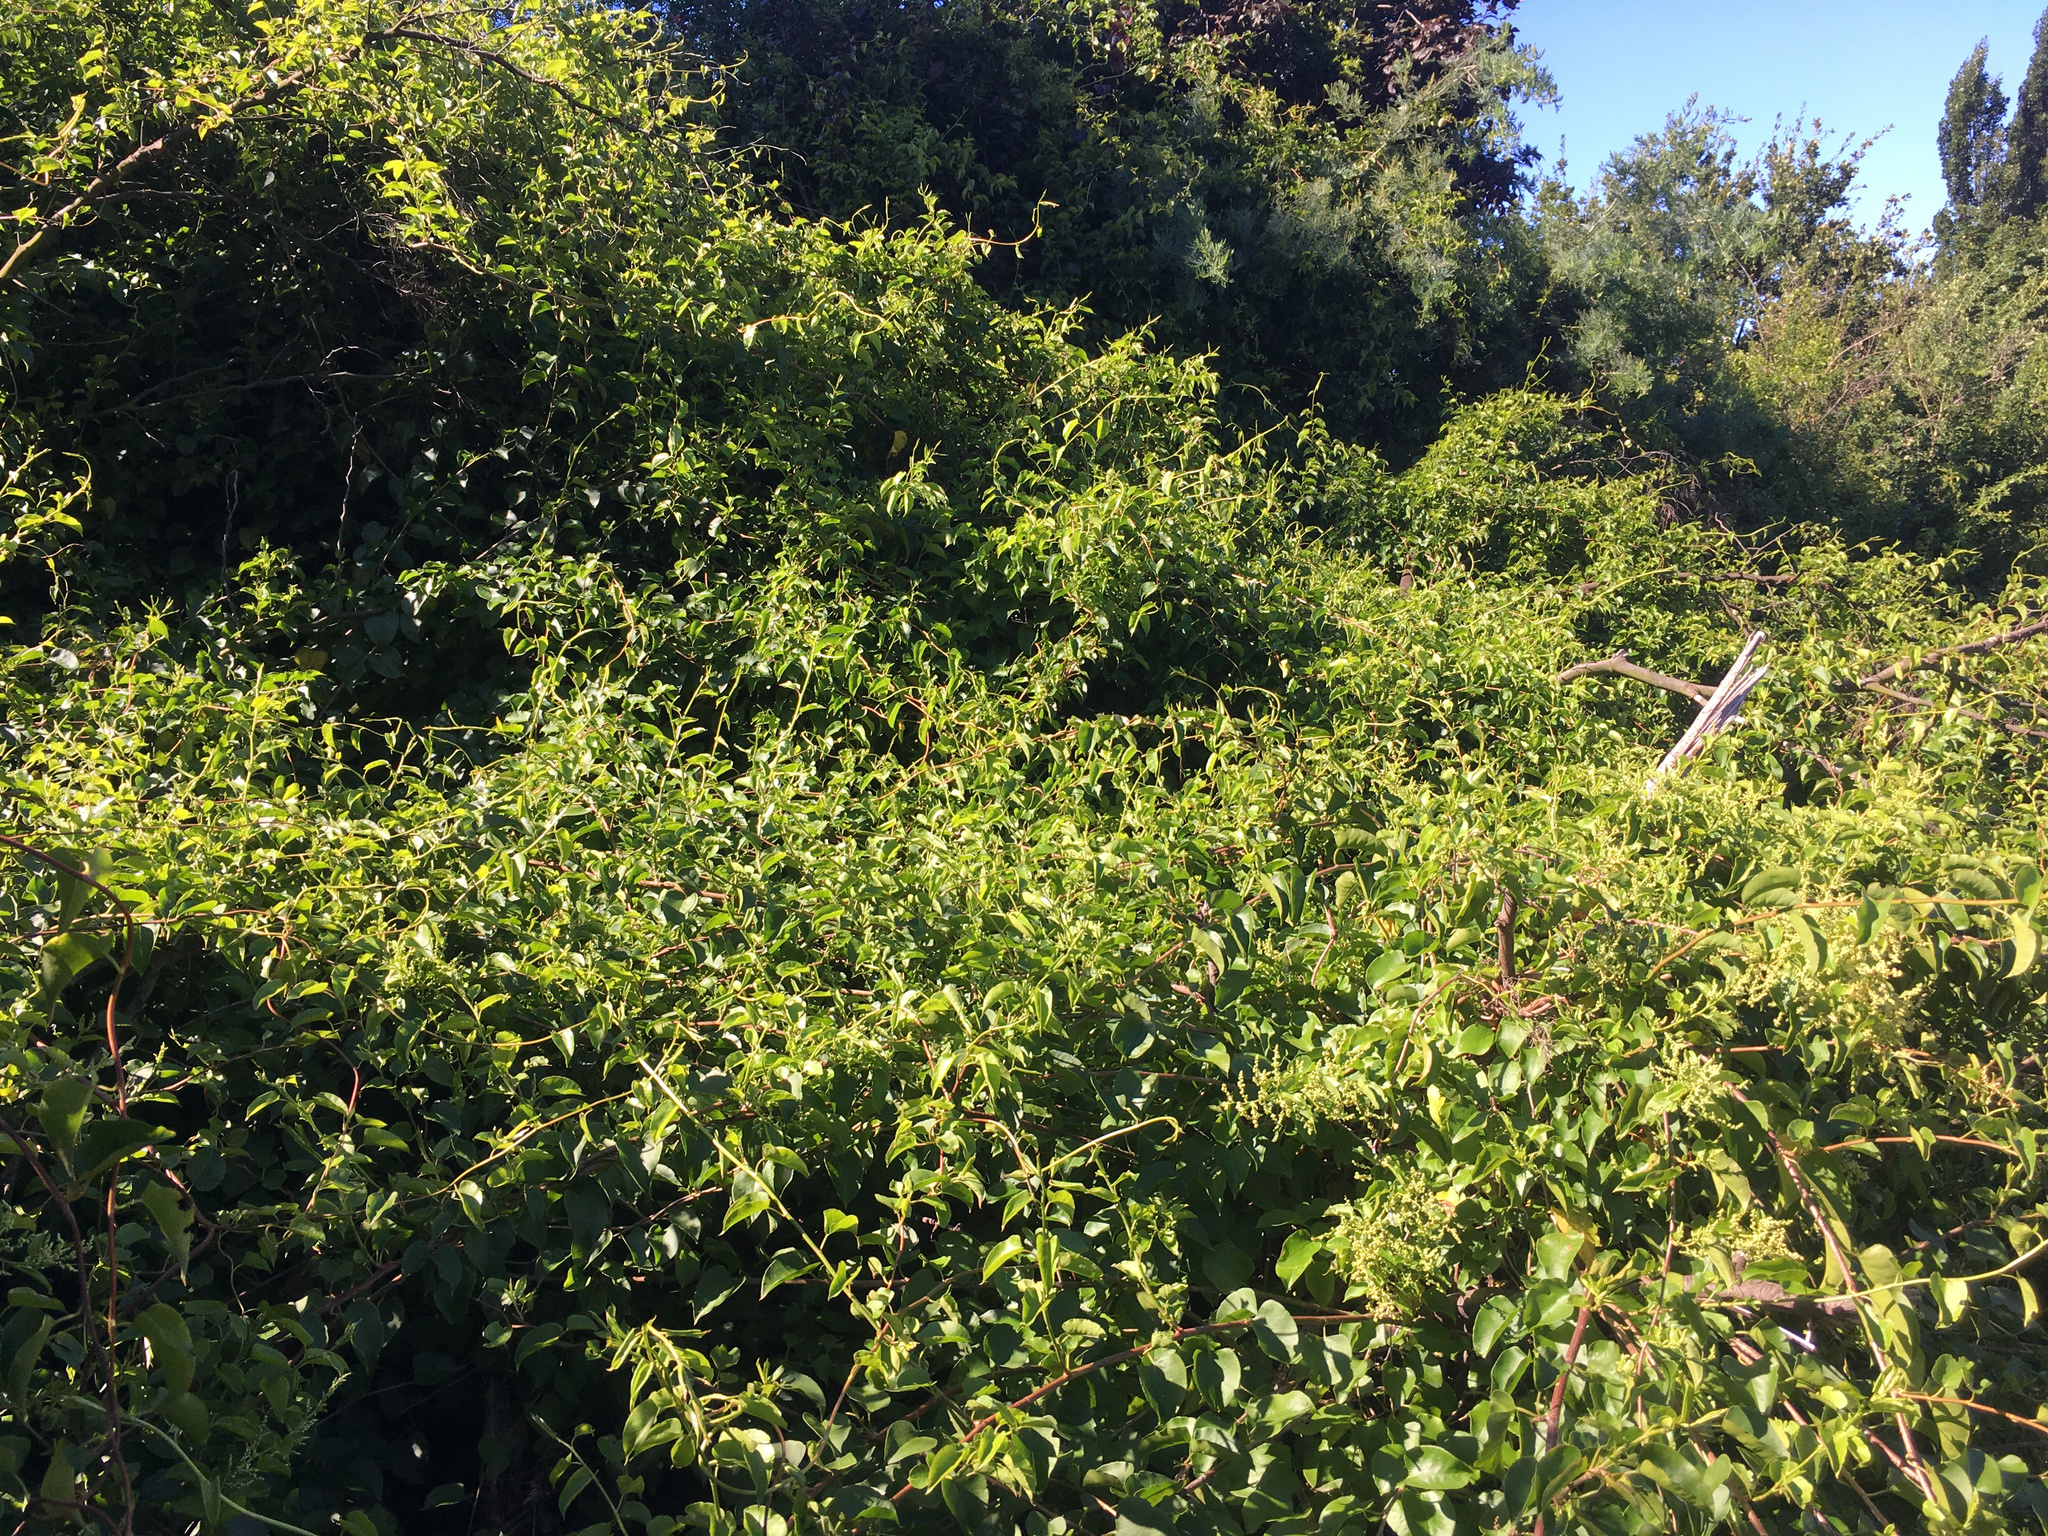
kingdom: Plantae
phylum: Tracheophyta
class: Magnoliopsida
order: Caryophyllales
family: Polygonaceae
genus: Muehlenbeckia
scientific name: Muehlenbeckia australis
